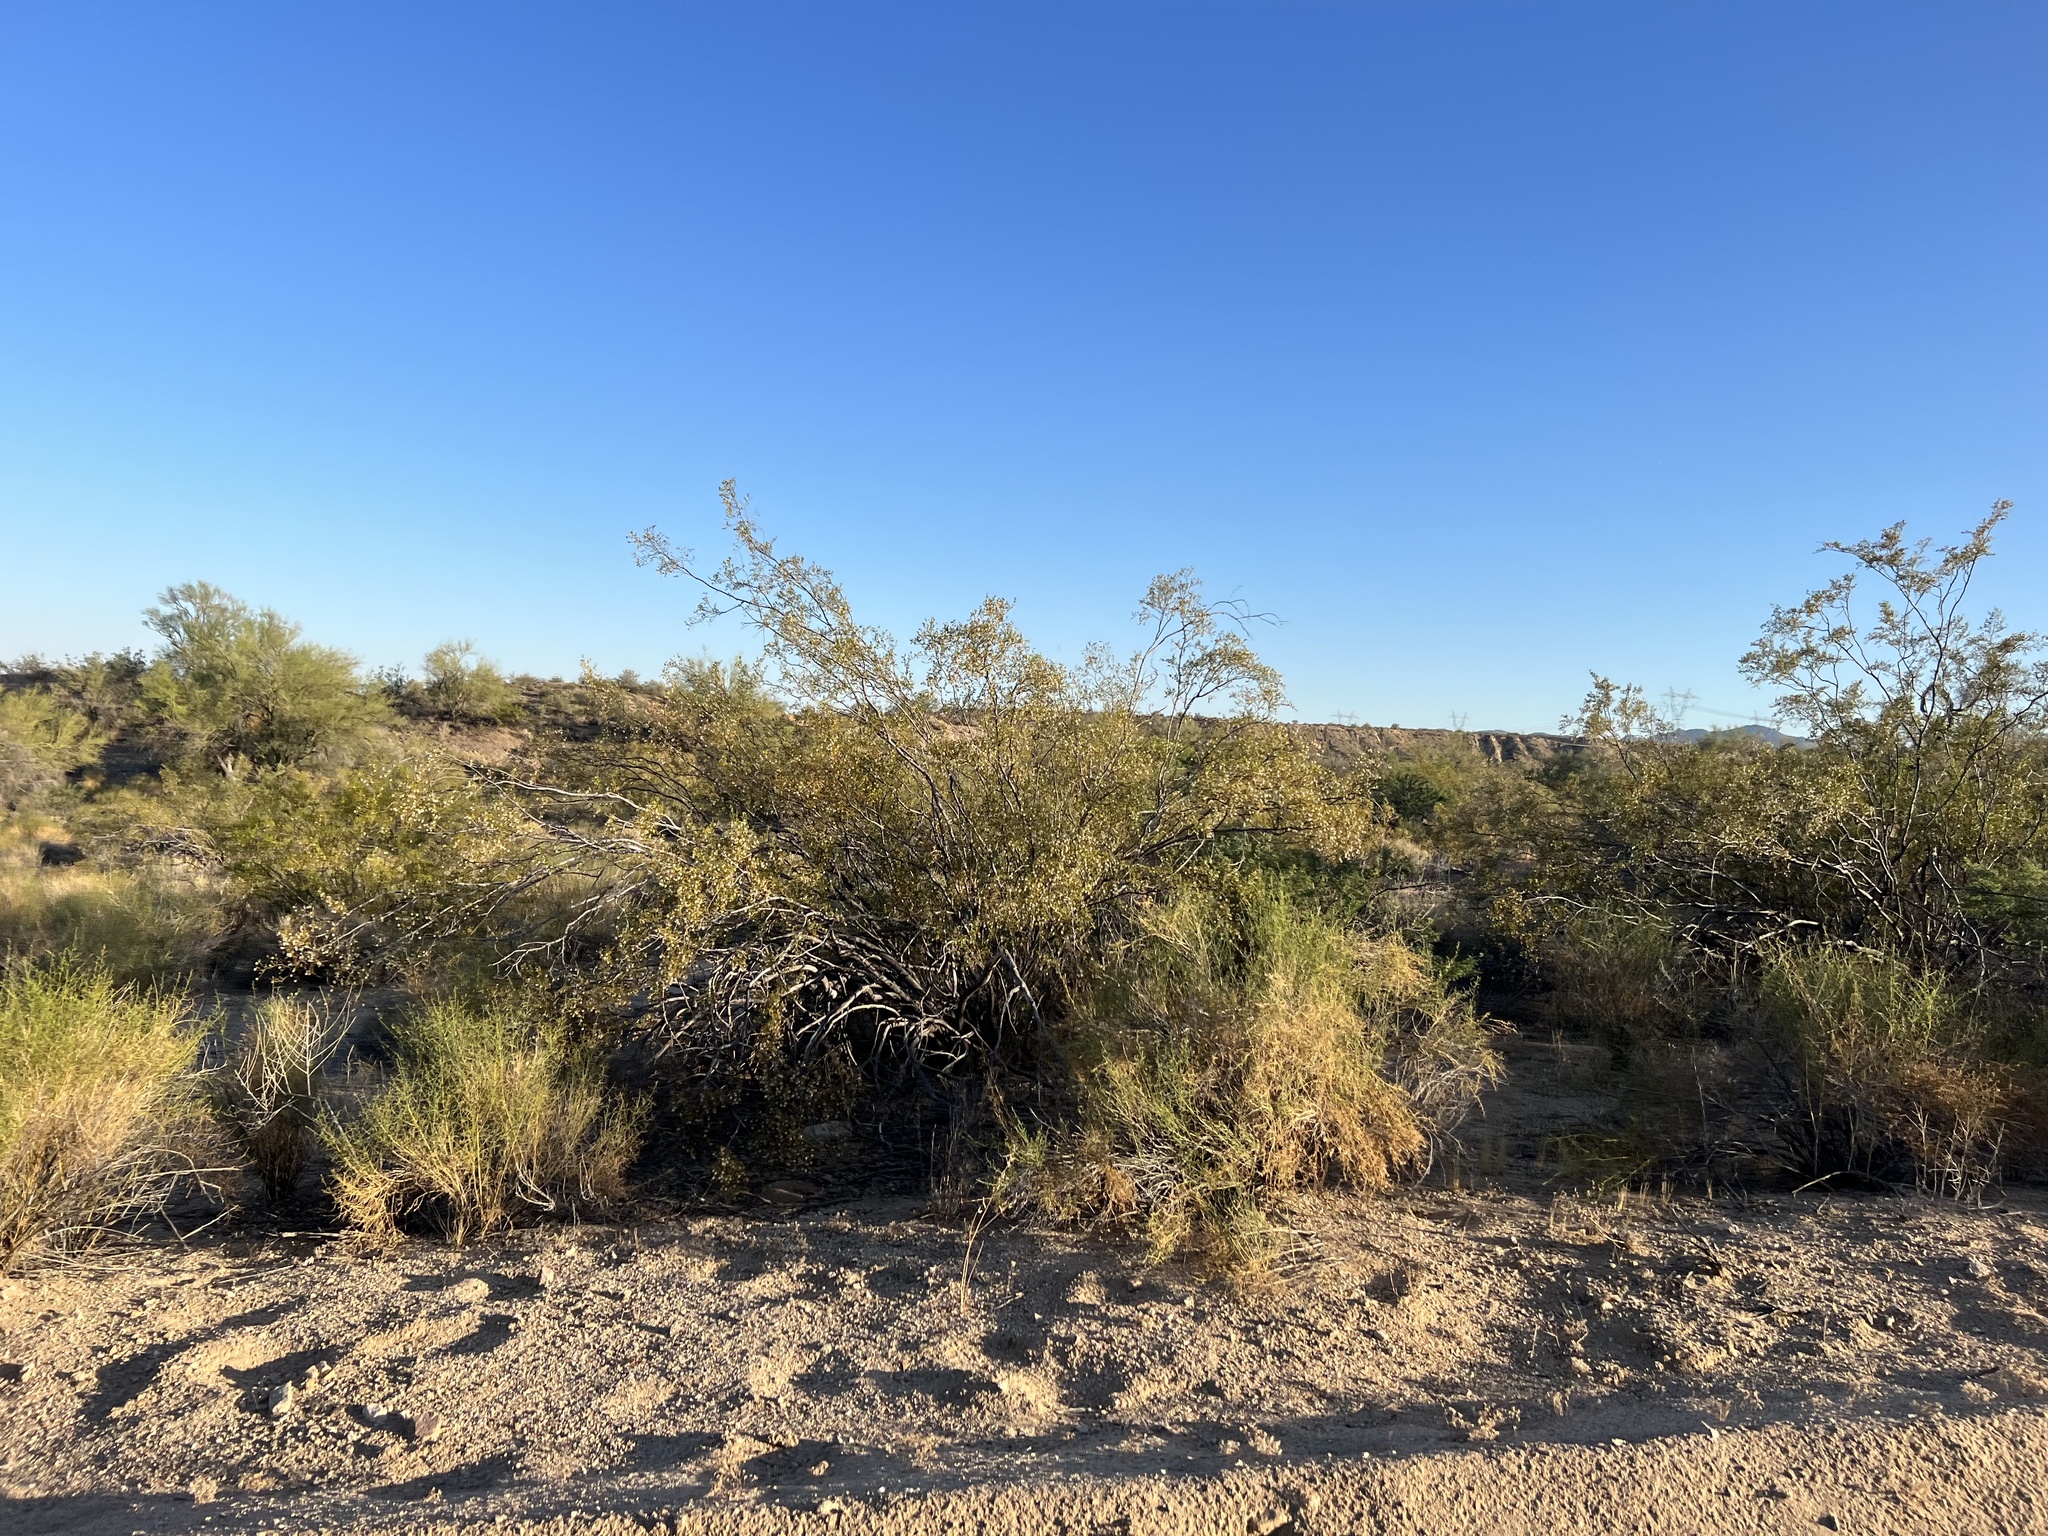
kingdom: Plantae
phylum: Tracheophyta
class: Magnoliopsida
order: Zygophyllales
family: Zygophyllaceae
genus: Larrea
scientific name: Larrea tridentata
